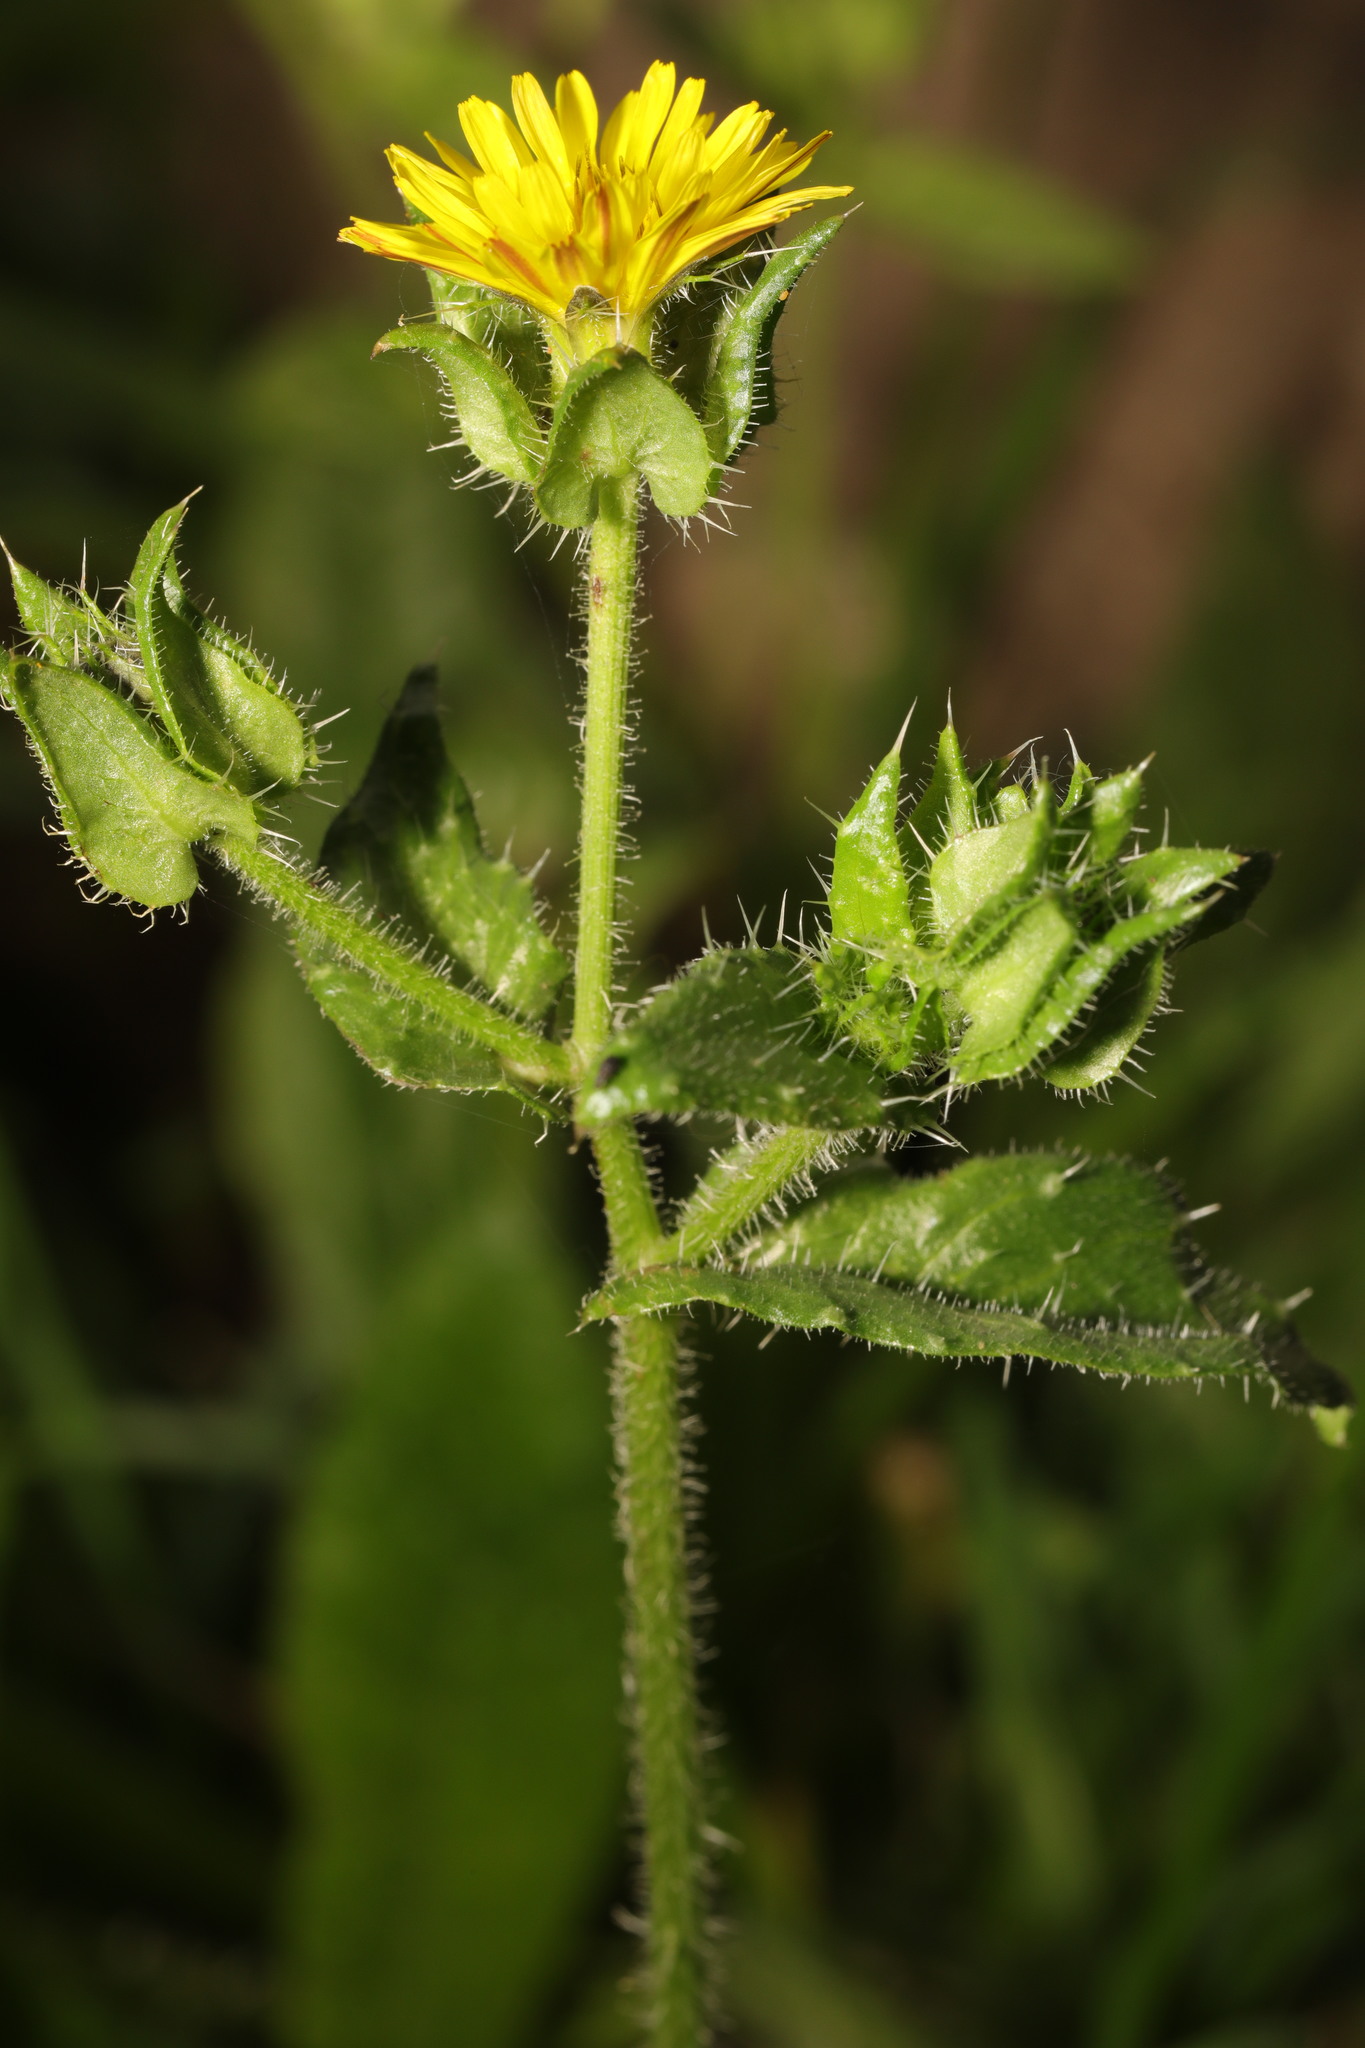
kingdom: Plantae
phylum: Tracheophyta
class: Magnoliopsida
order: Asterales
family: Asteraceae
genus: Helminthotheca
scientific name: Helminthotheca echioides
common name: Ox-tongue
